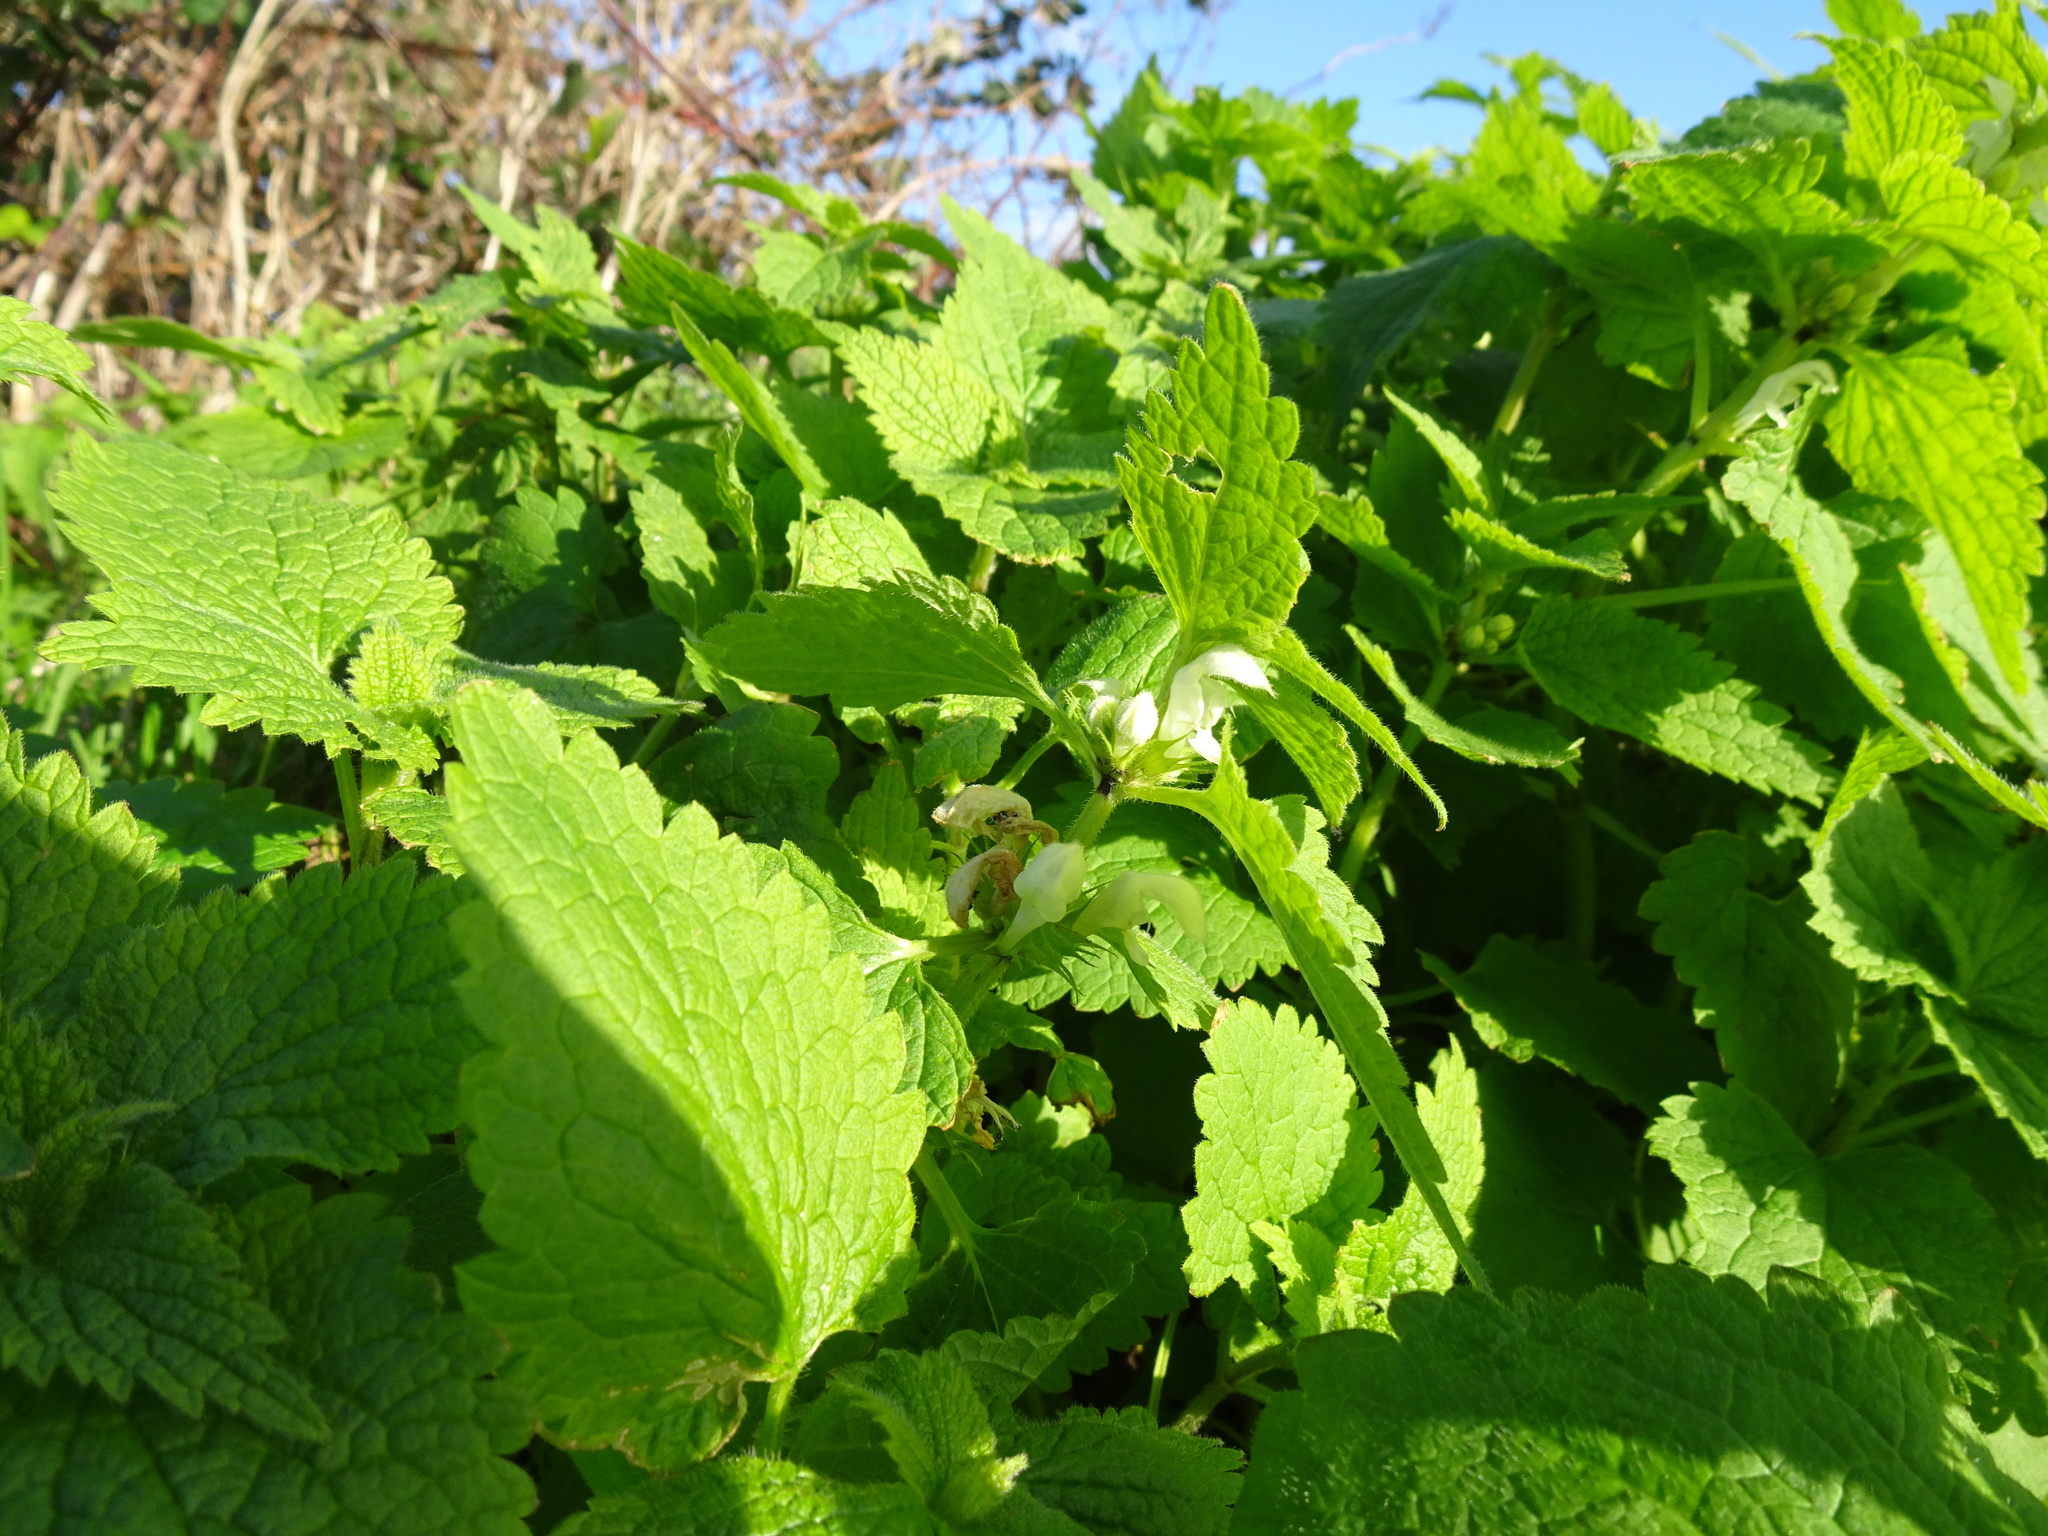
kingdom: Plantae
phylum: Tracheophyta
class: Magnoliopsida
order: Lamiales
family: Lamiaceae
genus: Lamium
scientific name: Lamium album
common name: White dead-nettle
